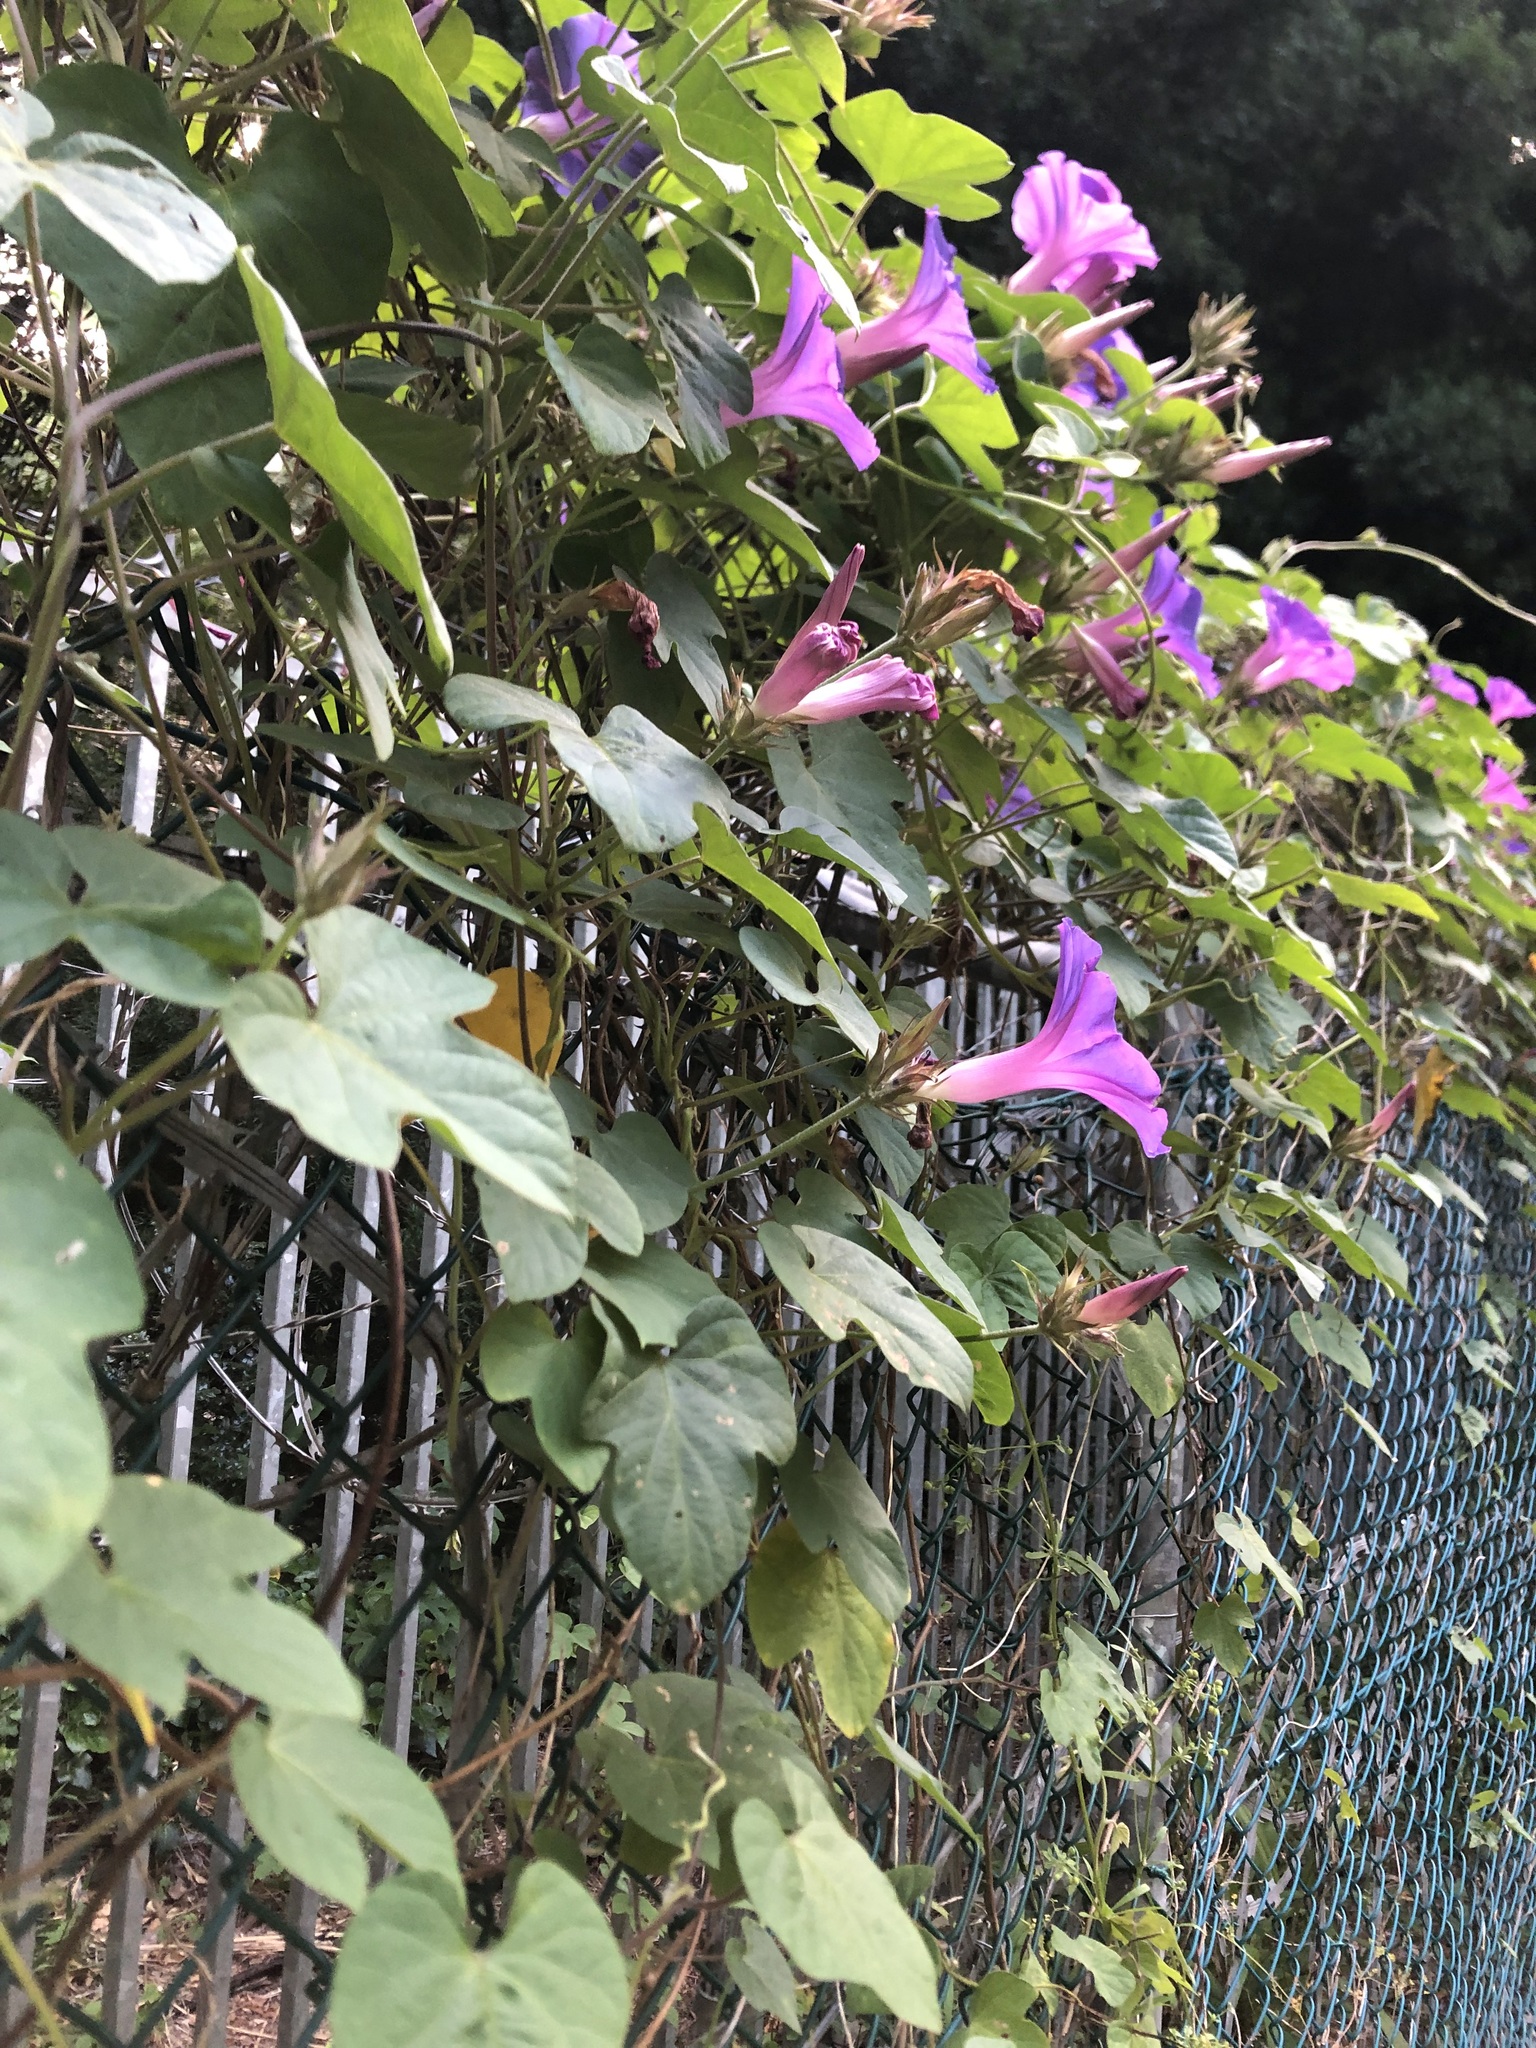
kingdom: Plantae
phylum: Tracheophyta
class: Magnoliopsida
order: Solanales
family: Convolvulaceae
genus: Ipomoea
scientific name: Ipomoea indica
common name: Blue dawnflower
